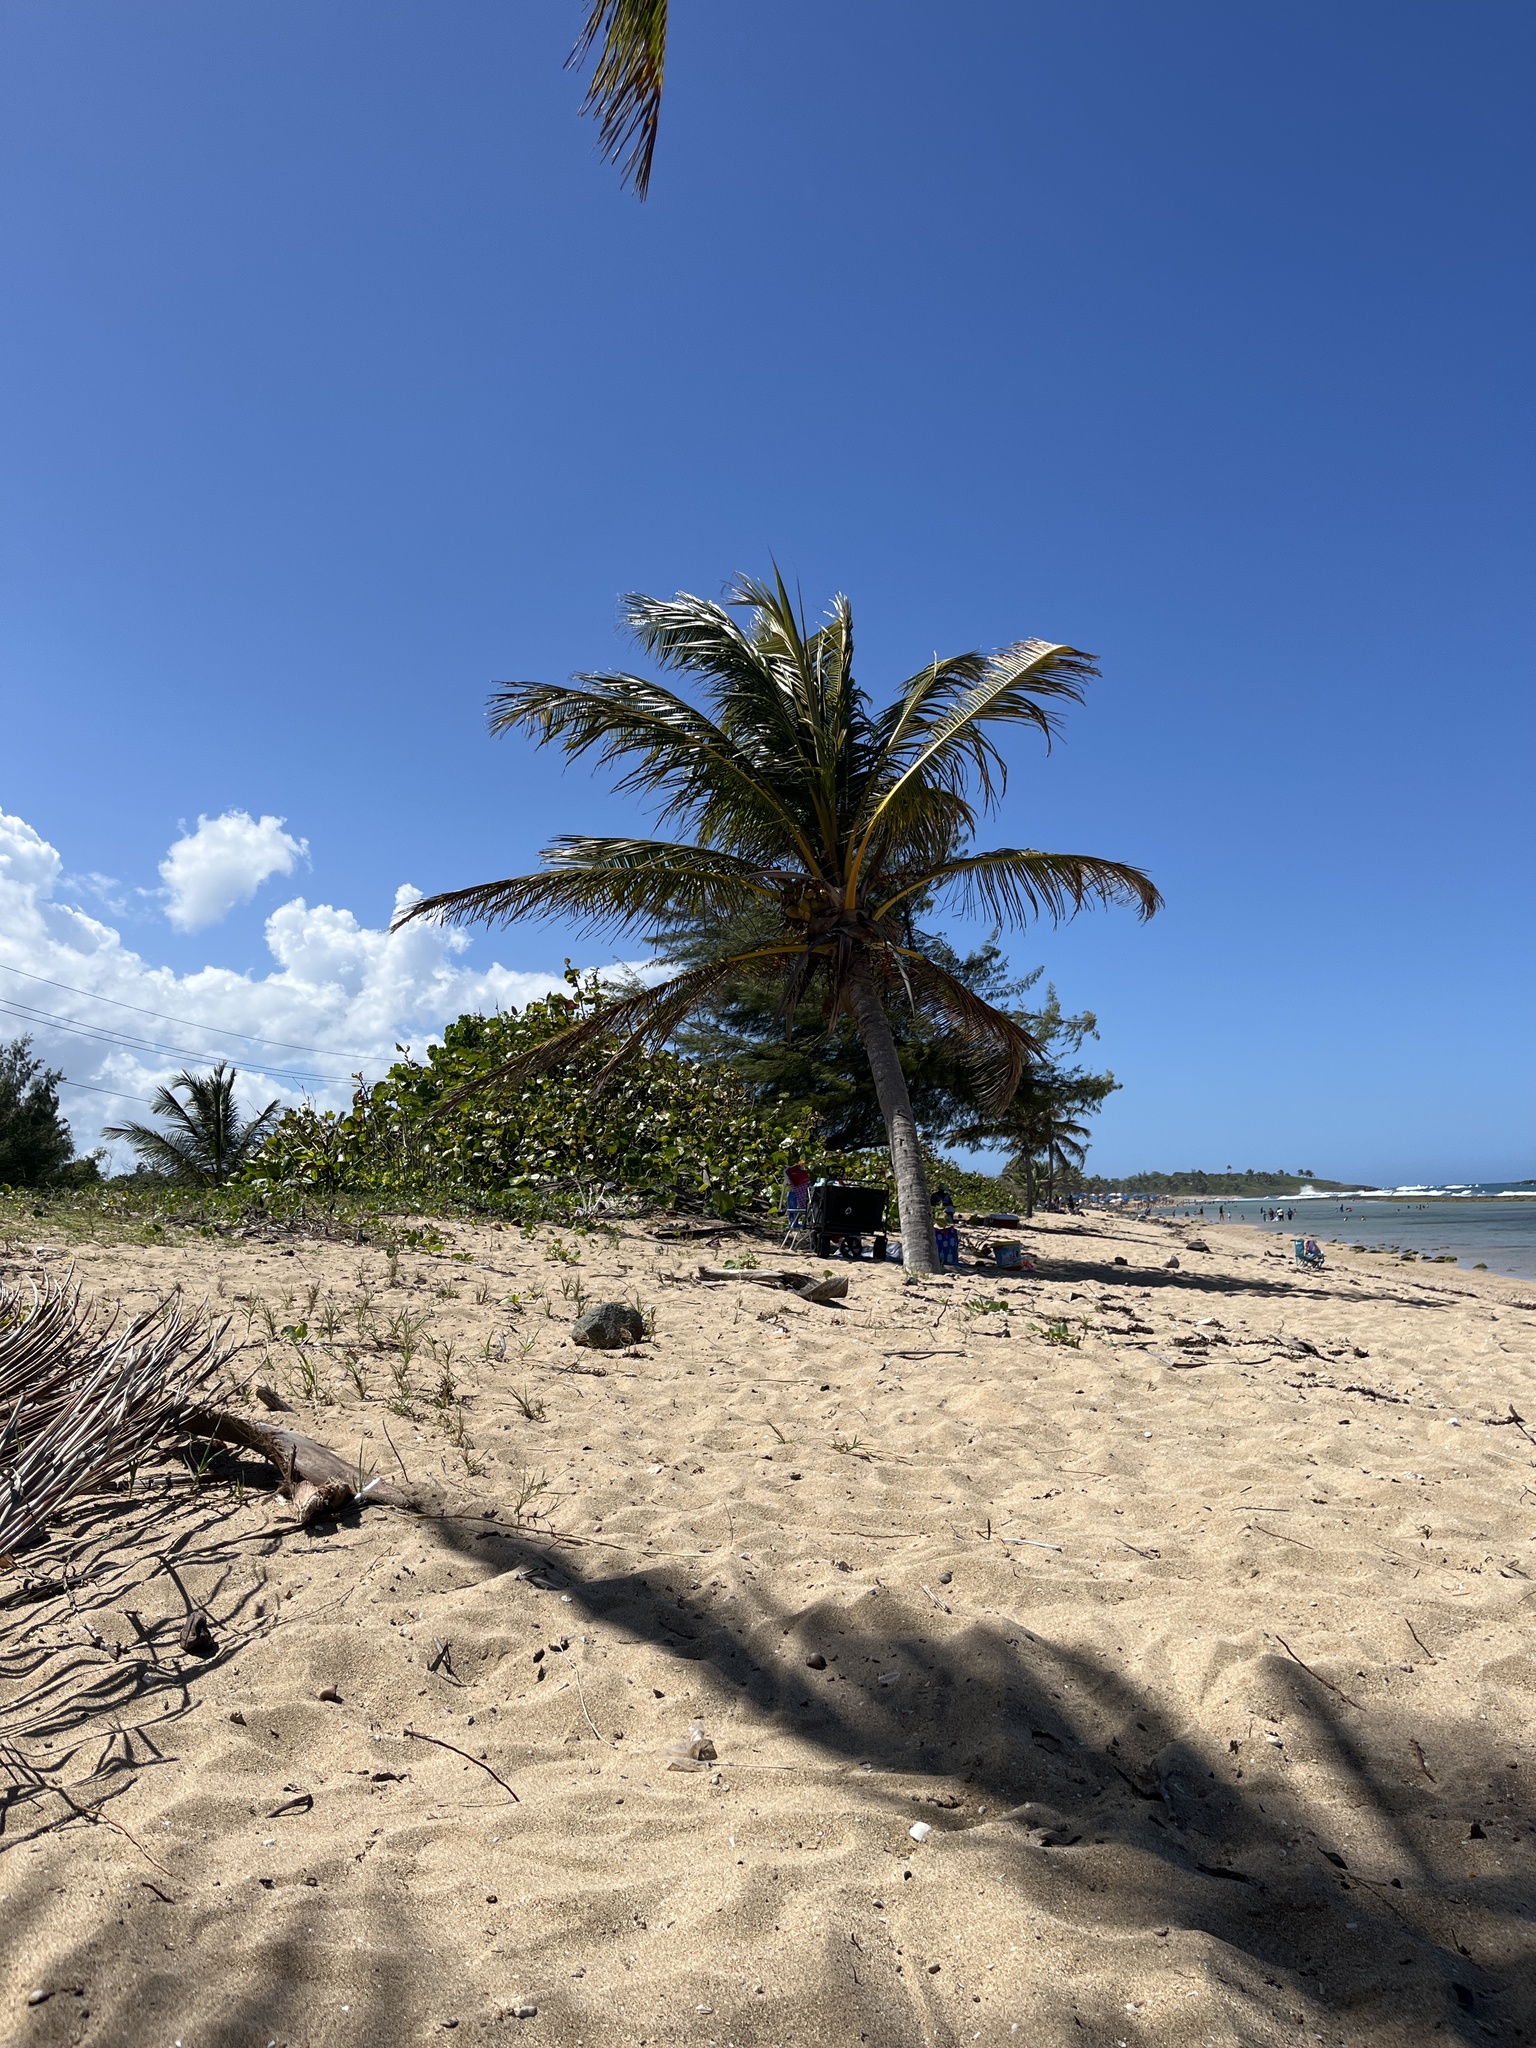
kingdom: Plantae
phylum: Tracheophyta
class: Liliopsida
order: Arecales
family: Arecaceae
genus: Cocos
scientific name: Cocos nucifera
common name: Coconut palm
